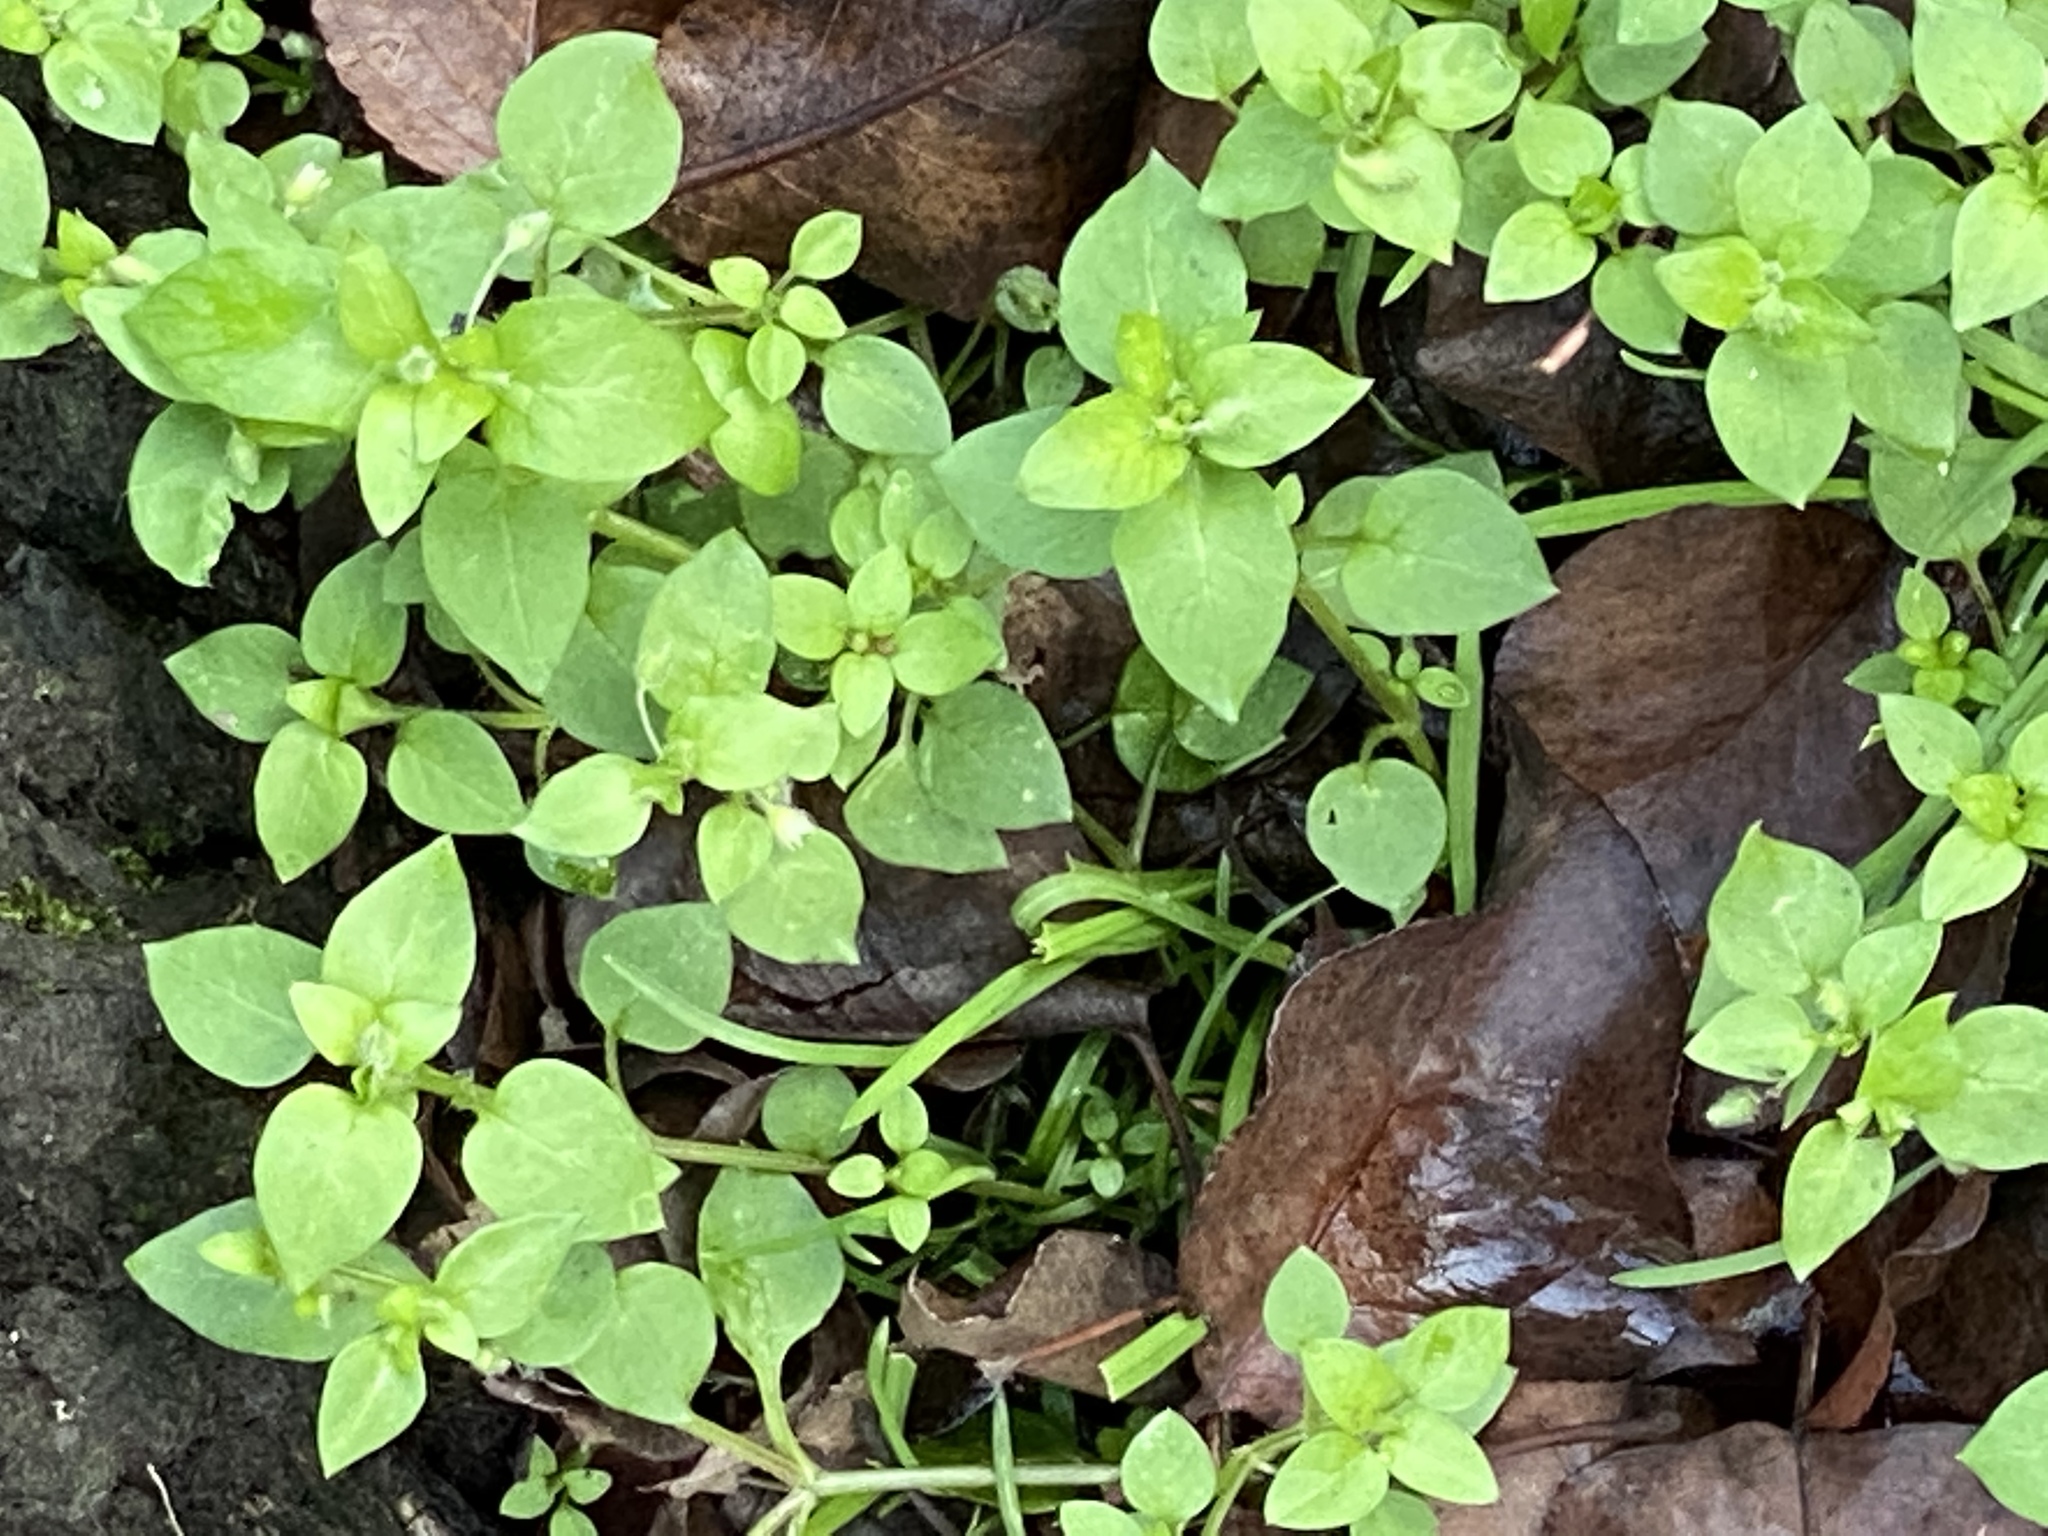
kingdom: Plantae
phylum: Tracheophyta
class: Magnoliopsida
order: Caryophyllales
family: Caryophyllaceae
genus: Stellaria
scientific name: Stellaria media
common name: Common chickweed
